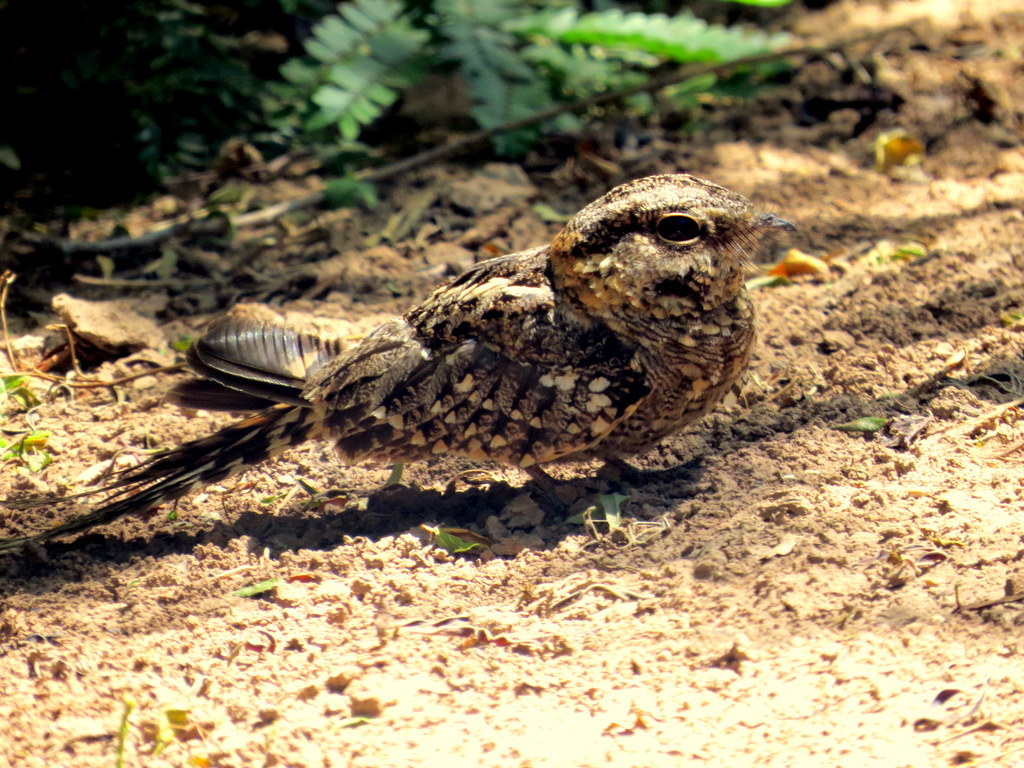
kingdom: Animalia
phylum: Chordata
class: Aves
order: Caprimulgiformes
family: Caprimulgidae
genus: Hydropsalis
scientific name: Hydropsalis torquata
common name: Scissor-tailed nightjar
